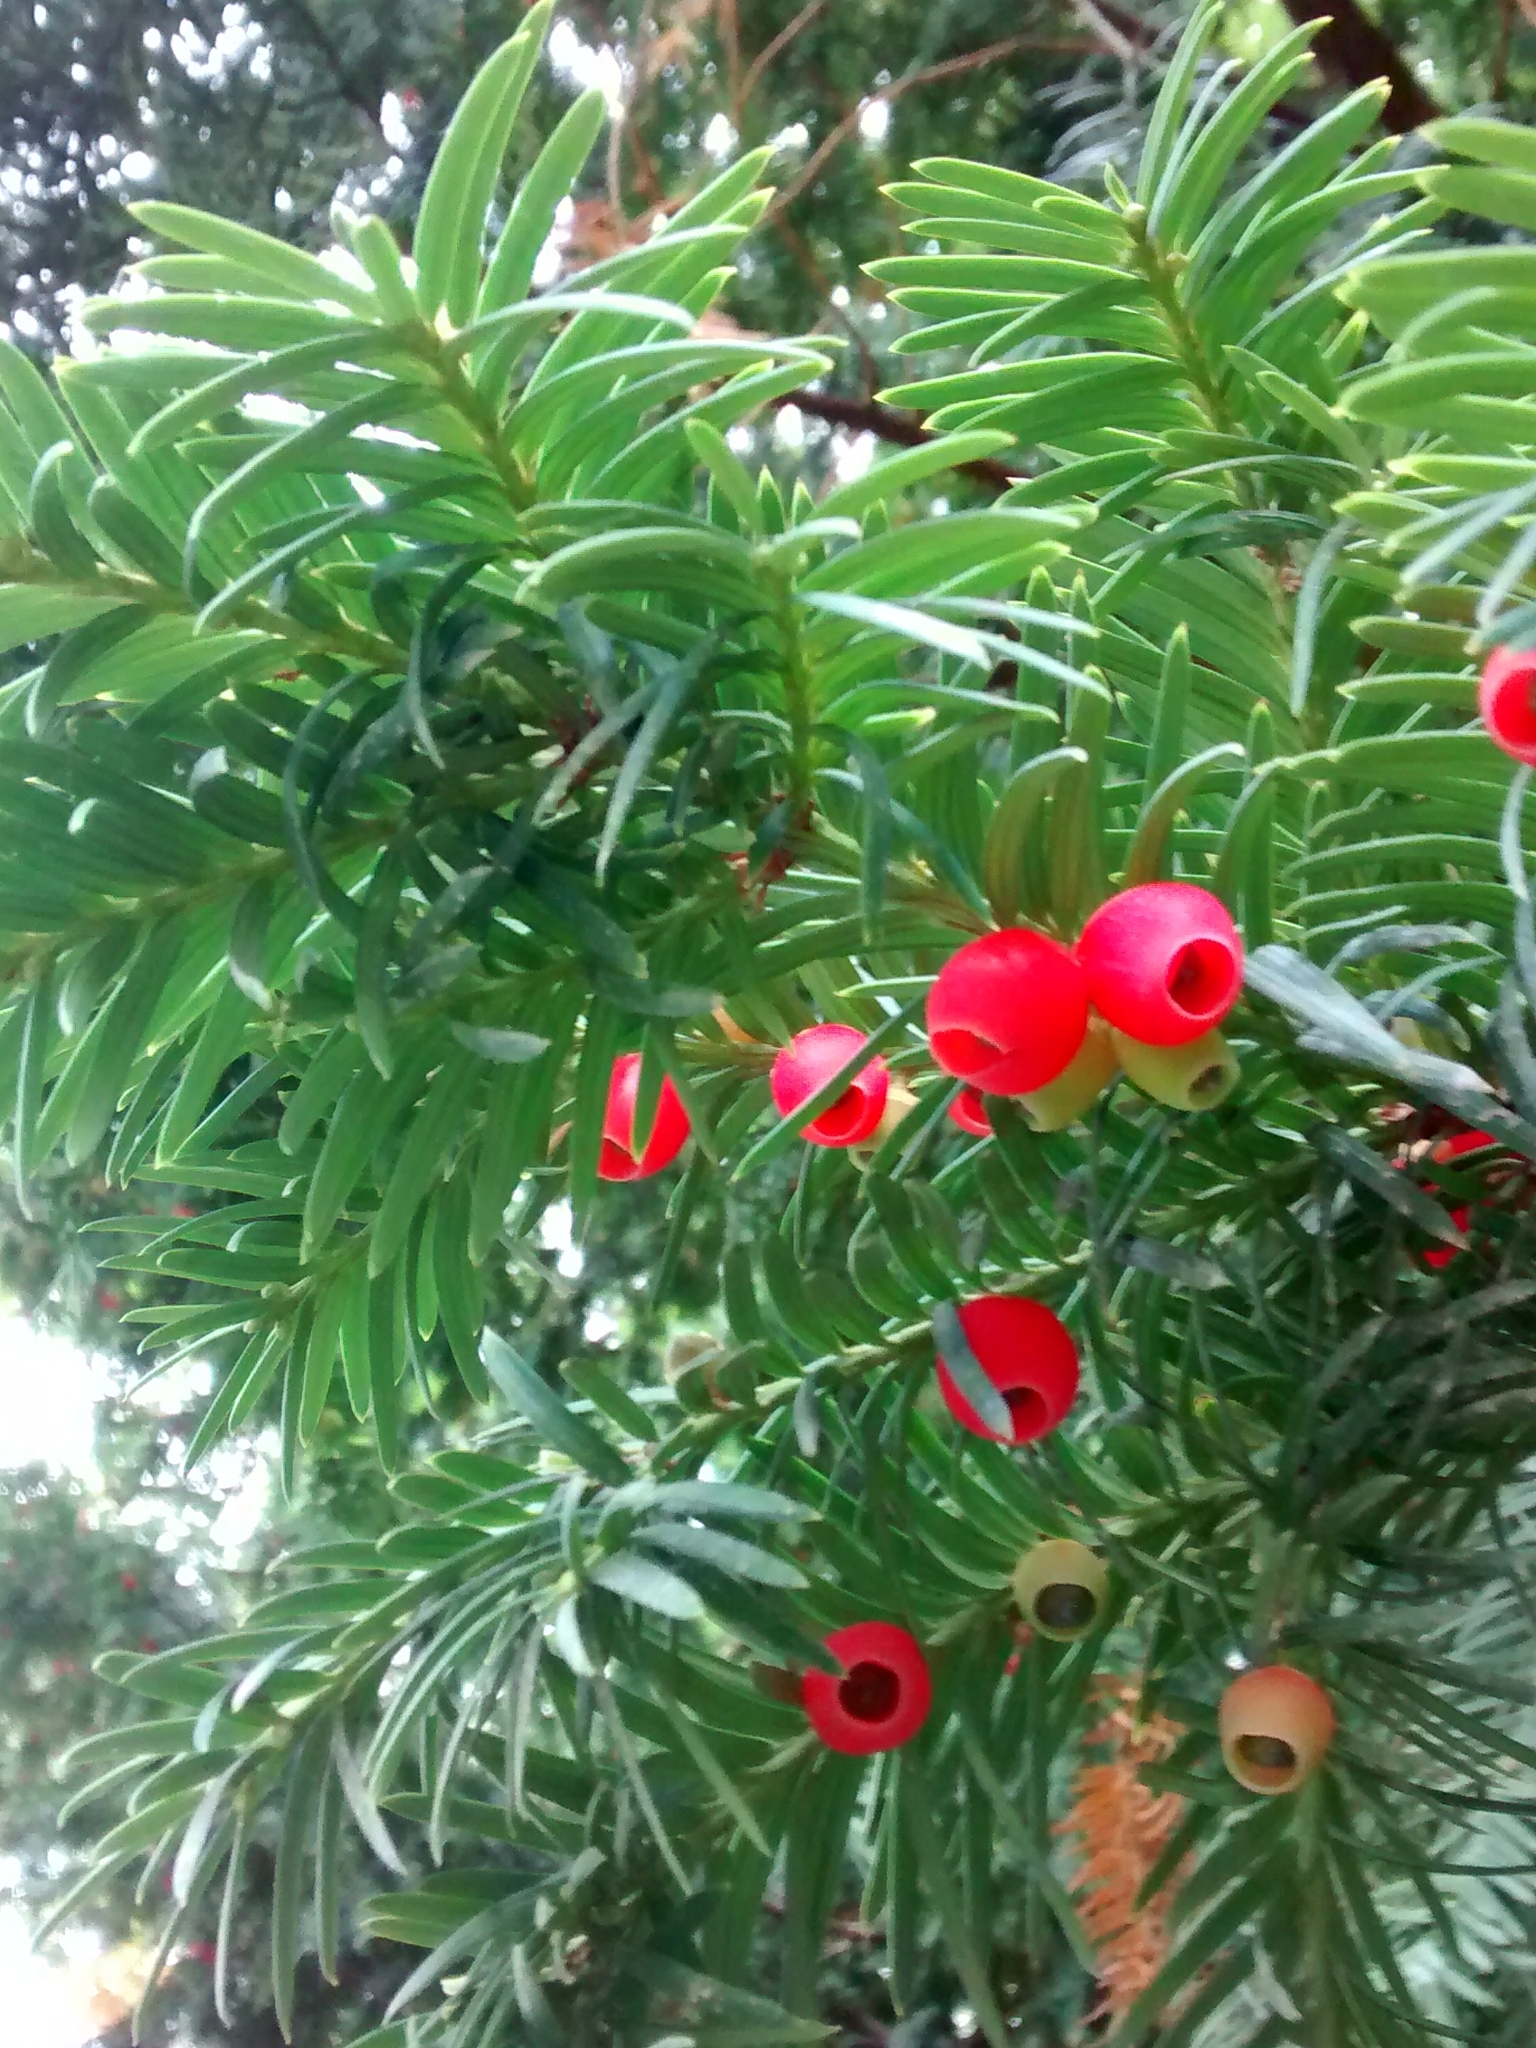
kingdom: Plantae
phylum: Tracheophyta
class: Pinopsida
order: Pinales
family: Taxaceae
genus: Taxus
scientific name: Taxus baccata
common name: Yew
